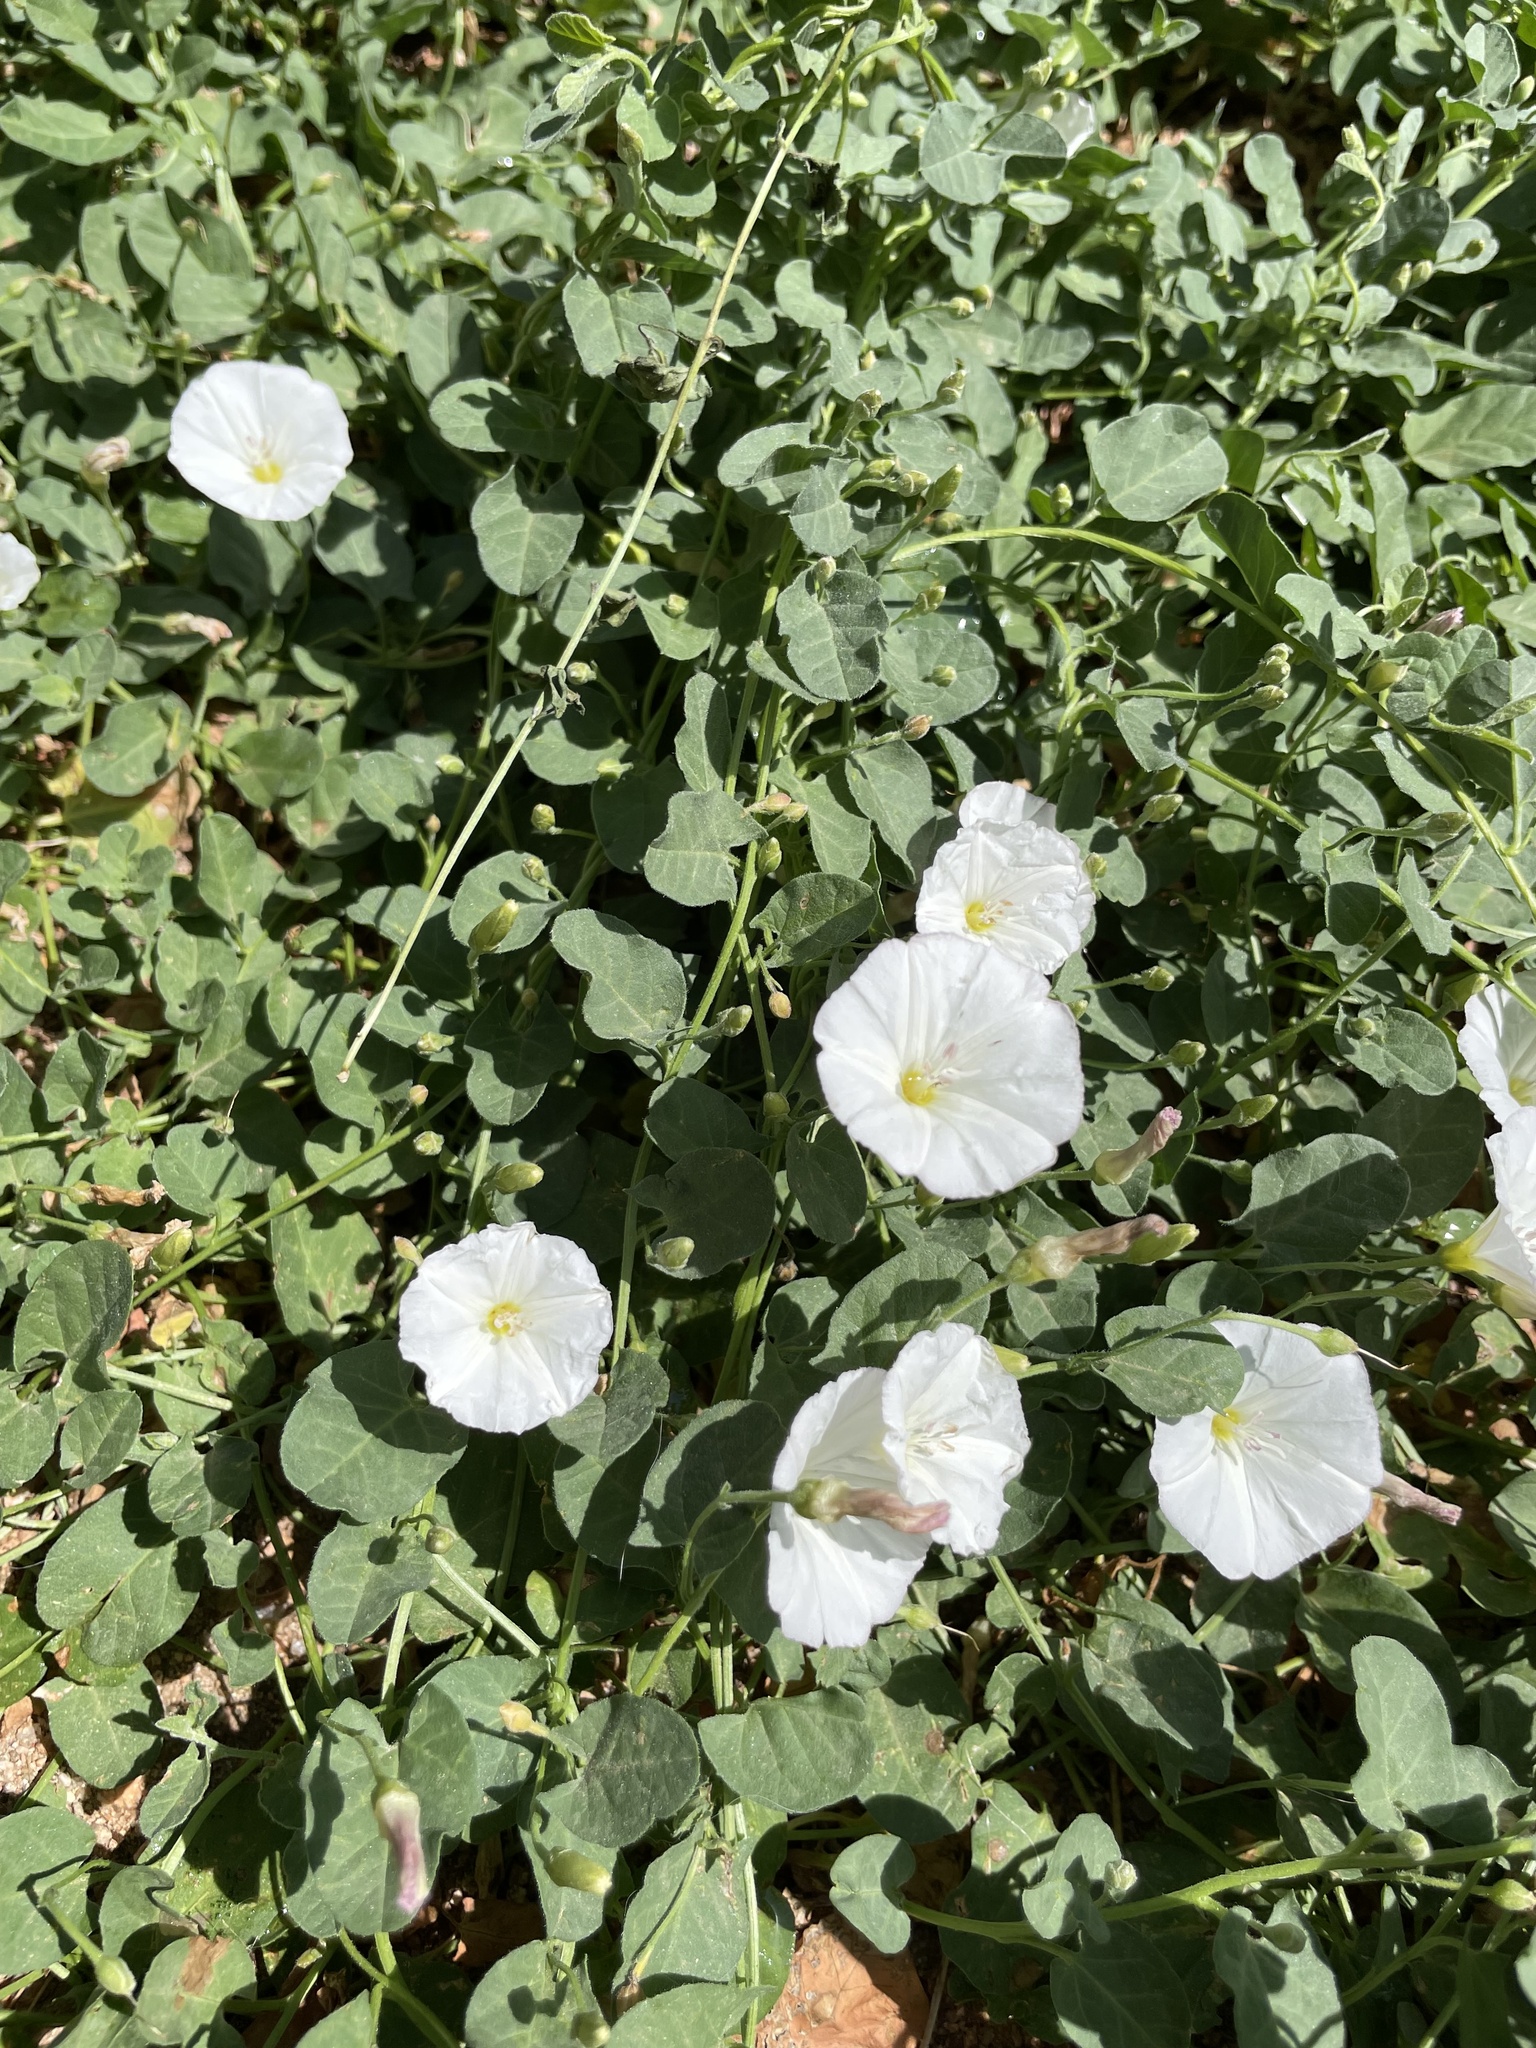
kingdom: Plantae
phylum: Tracheophyta
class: Magnoliopsida
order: Solanales
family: Convolvulaceae
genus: Convolvulus
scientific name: Convolvulus arvensis
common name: Field bindweed
